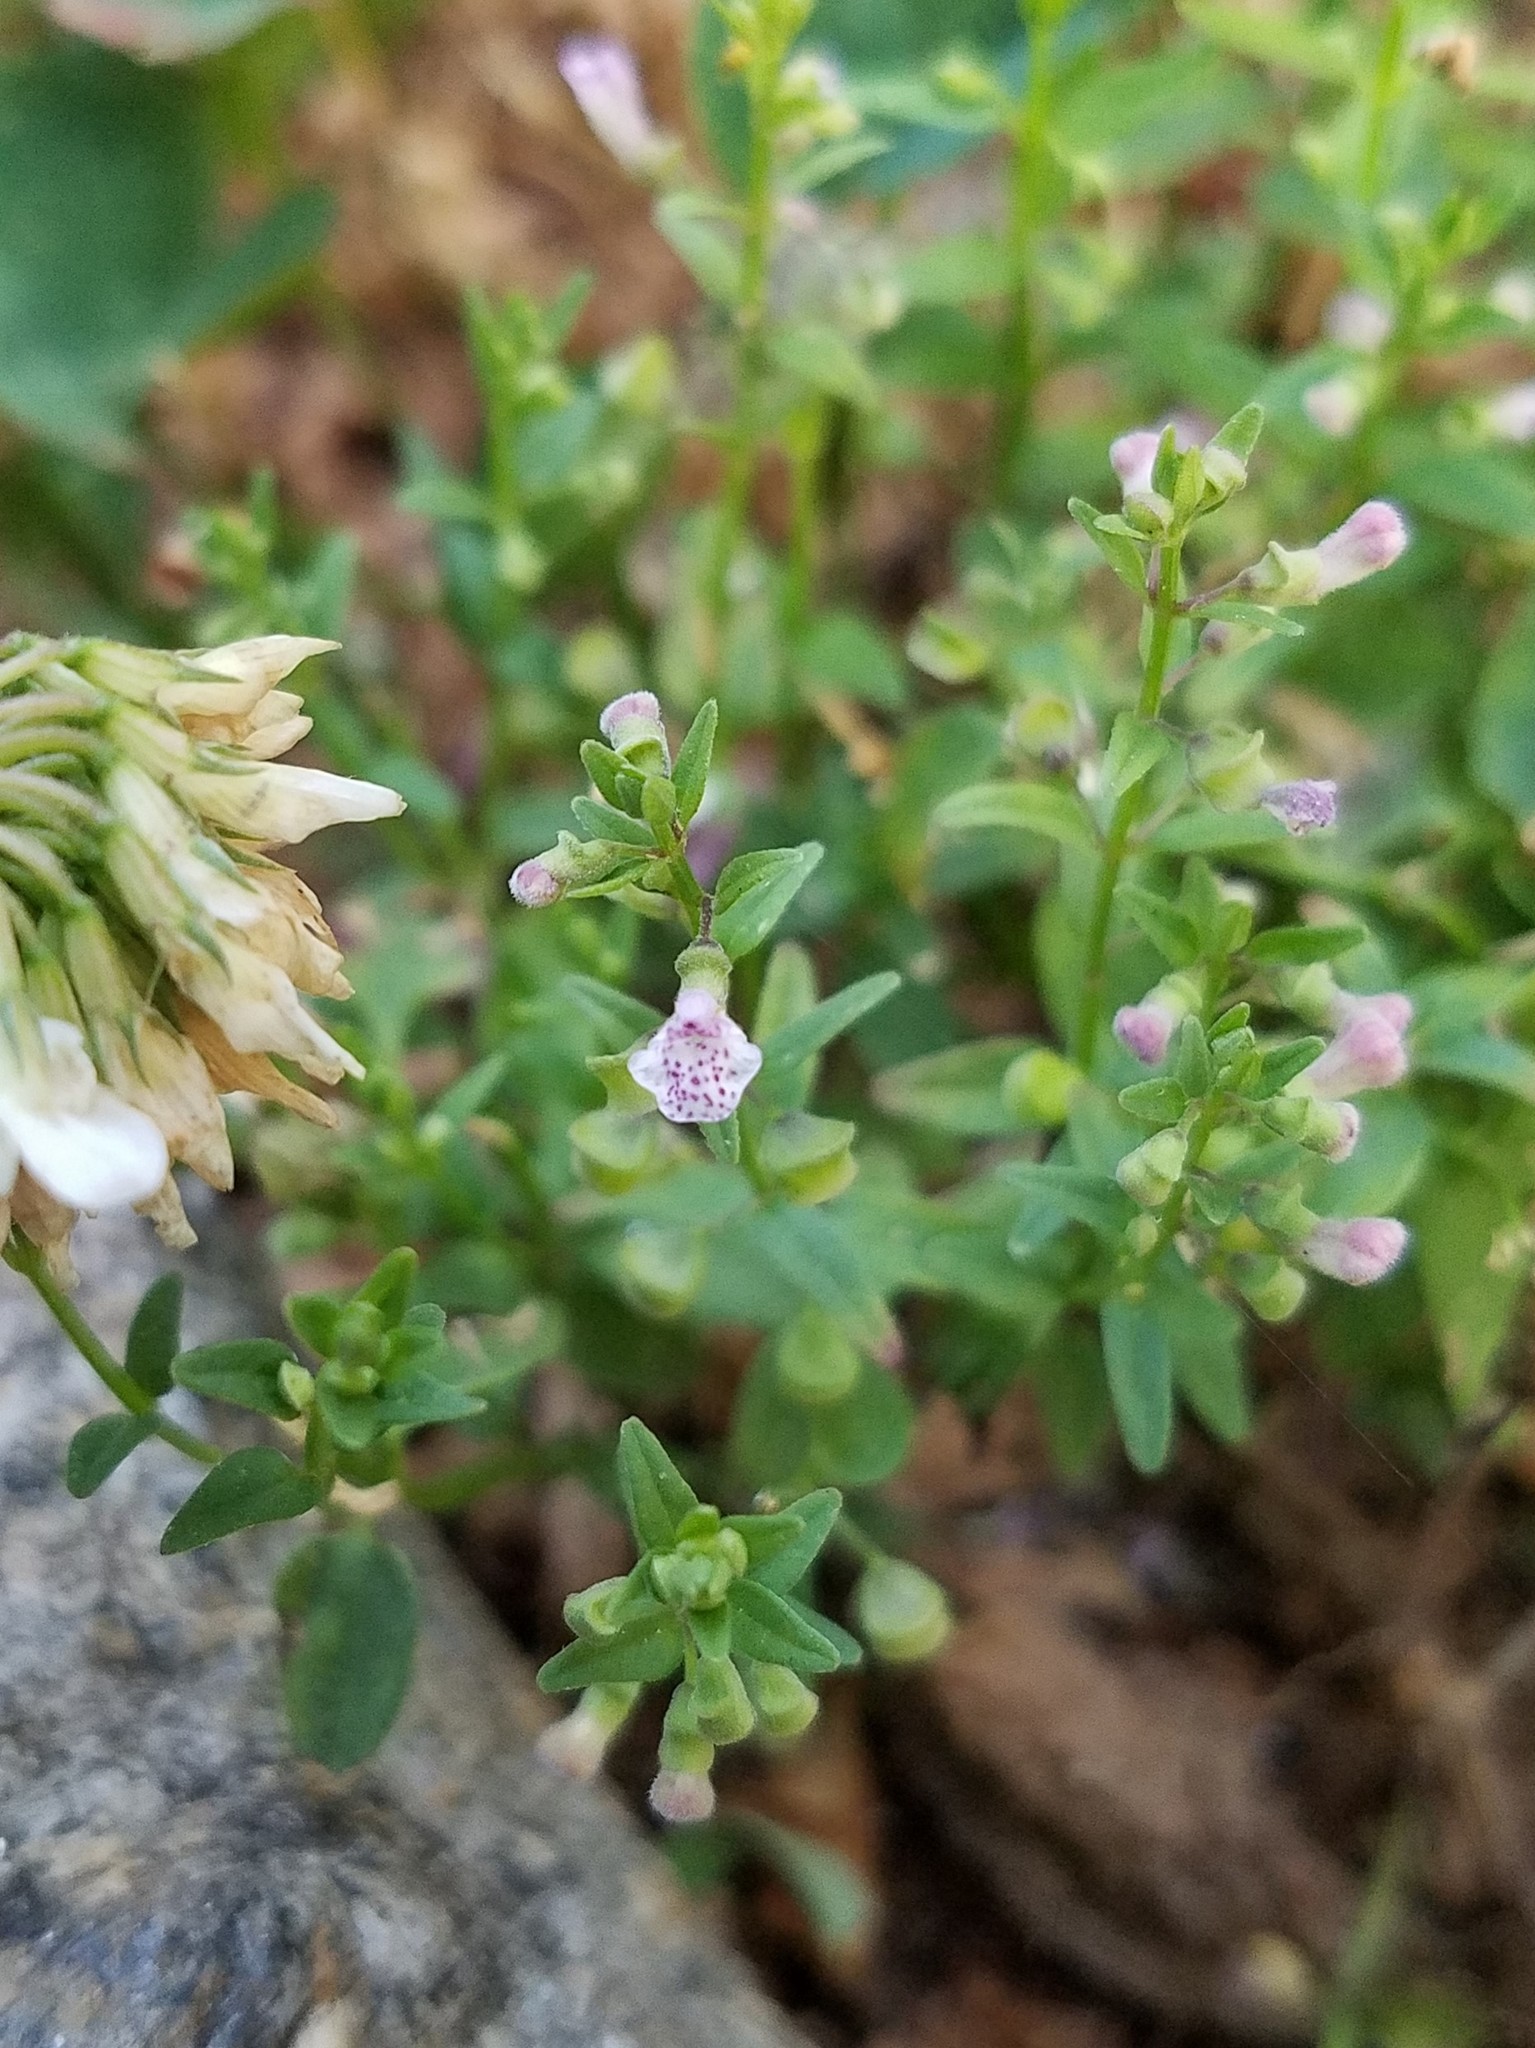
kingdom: Plantae
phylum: Tracheophyta
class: Magnoliopsida
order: Lamiales
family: Lamiaceae
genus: Scutellaria
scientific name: Scutellaria racemosa
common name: South american skullcap
